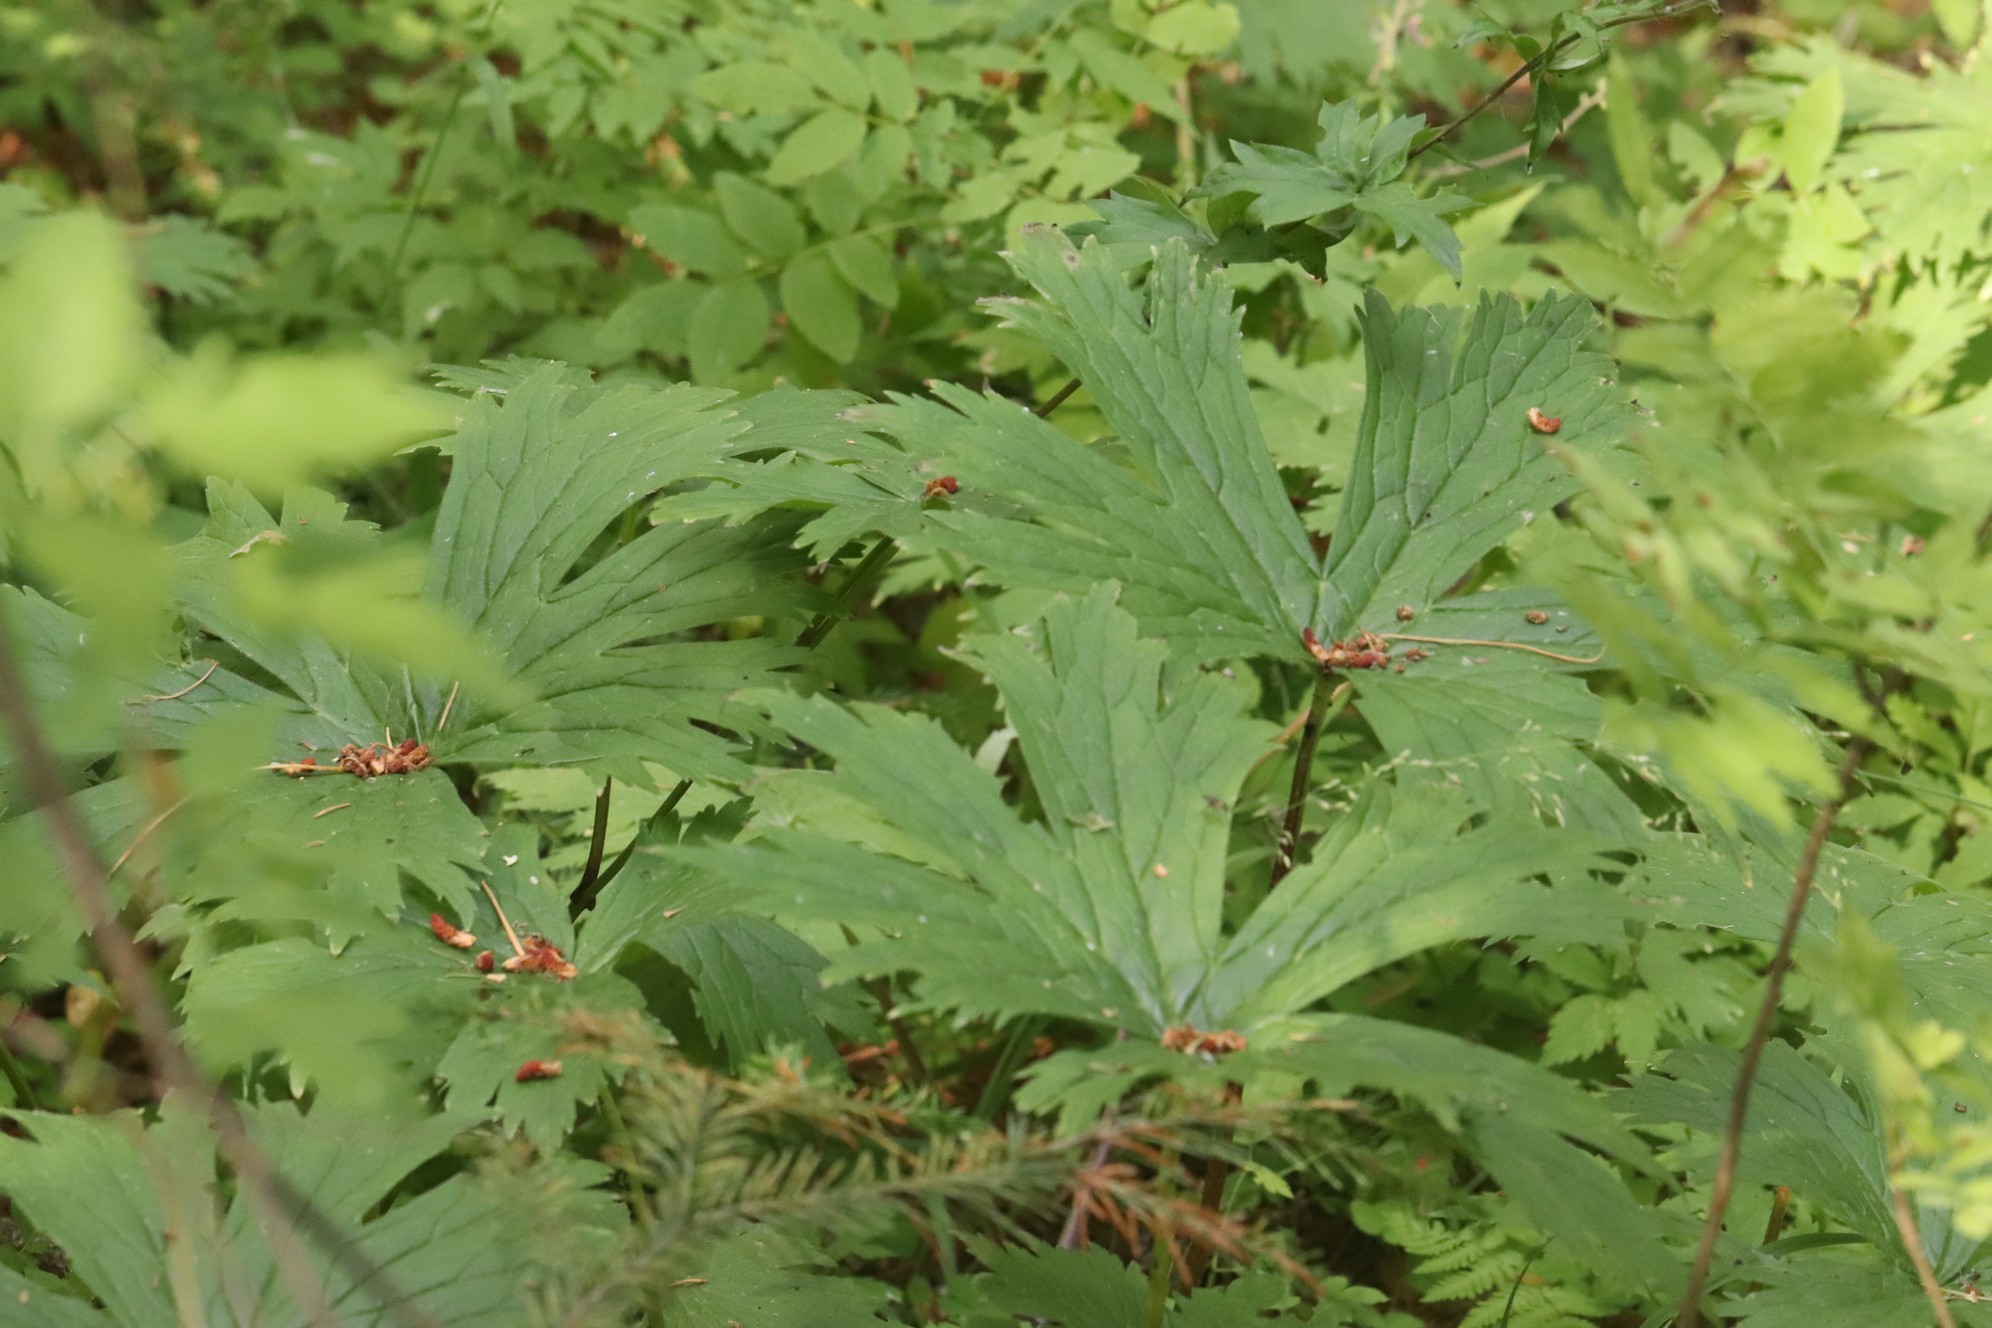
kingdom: Plantae
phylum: Tracheophyta
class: Magnoliopsida
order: Ranunculales
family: Ranunculaceae
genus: Aconitum
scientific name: Aconitum septentrionale
